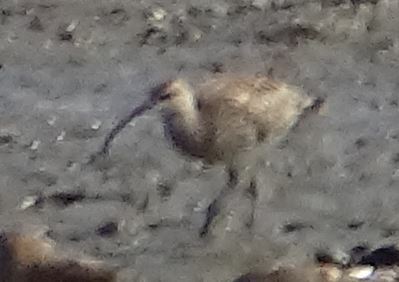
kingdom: Animalia
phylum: Chordata
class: Aves
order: Charadriiformes
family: Scolopacidae
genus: Numenius
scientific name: Numenius arquata
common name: Eurasian curlew
